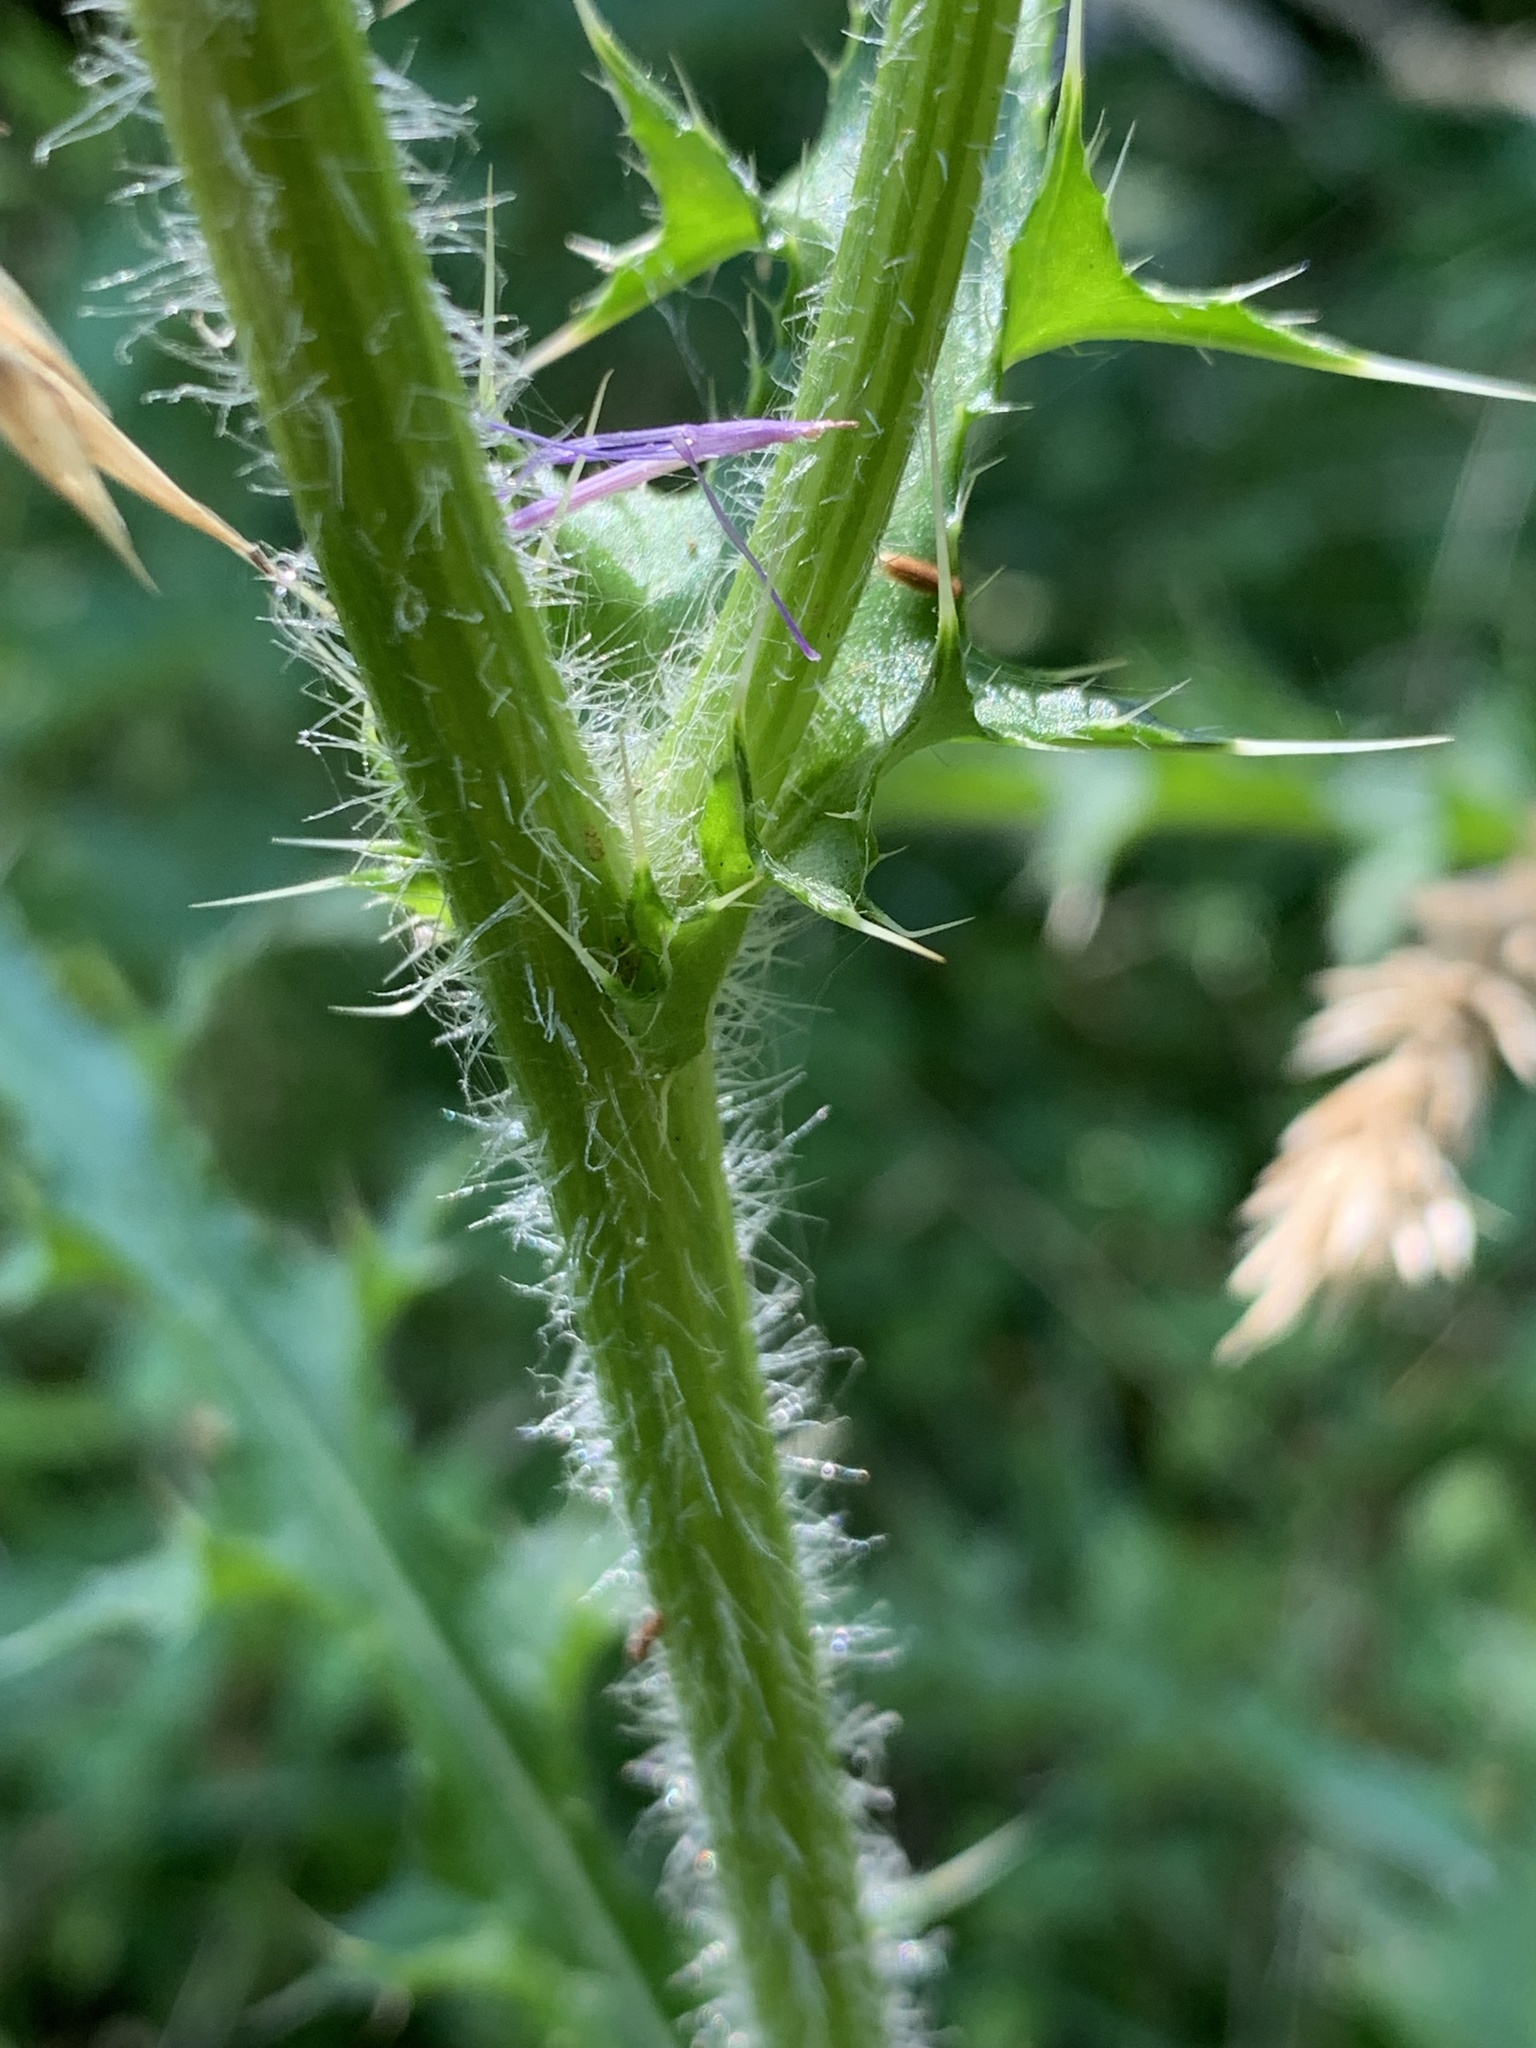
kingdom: Plantae
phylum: Tracheophyta
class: Magnoliopsida
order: Asterales
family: Asteraceae
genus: Cirsium
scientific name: Cirsium pumilum
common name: Pasture thistle
